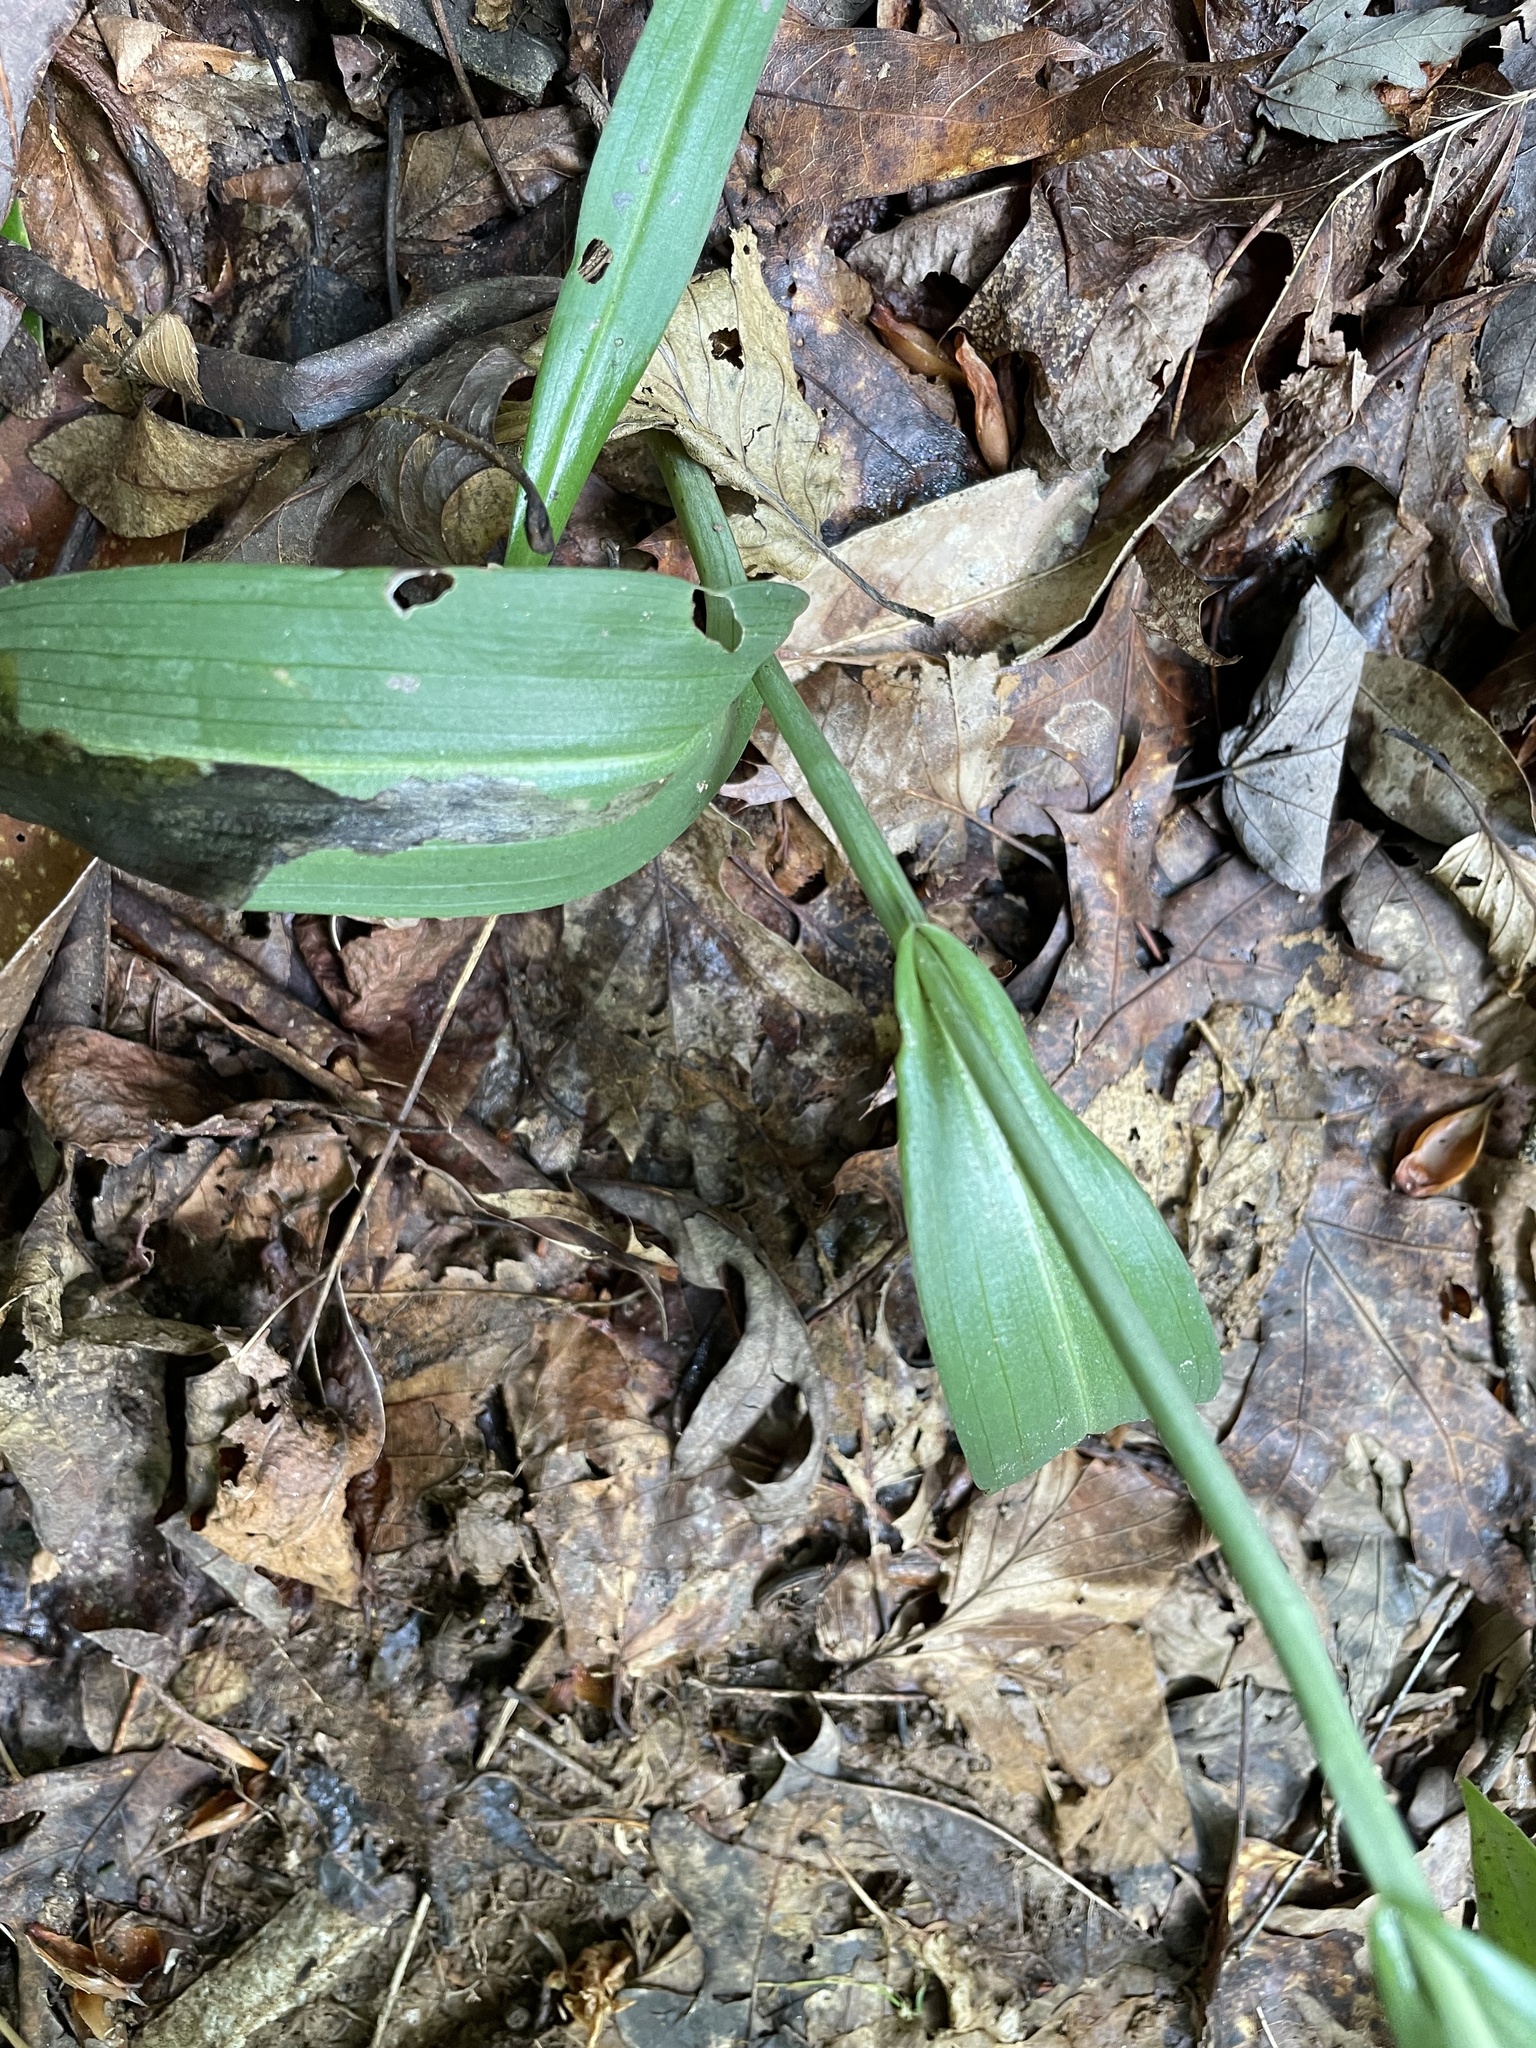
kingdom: Plantae
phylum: Tracheophyta
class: Liliopsida
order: Asparagales
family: Orchidaceae
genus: Platanthera
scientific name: Platanthera ciliaris
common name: Yellow fringed orchid
